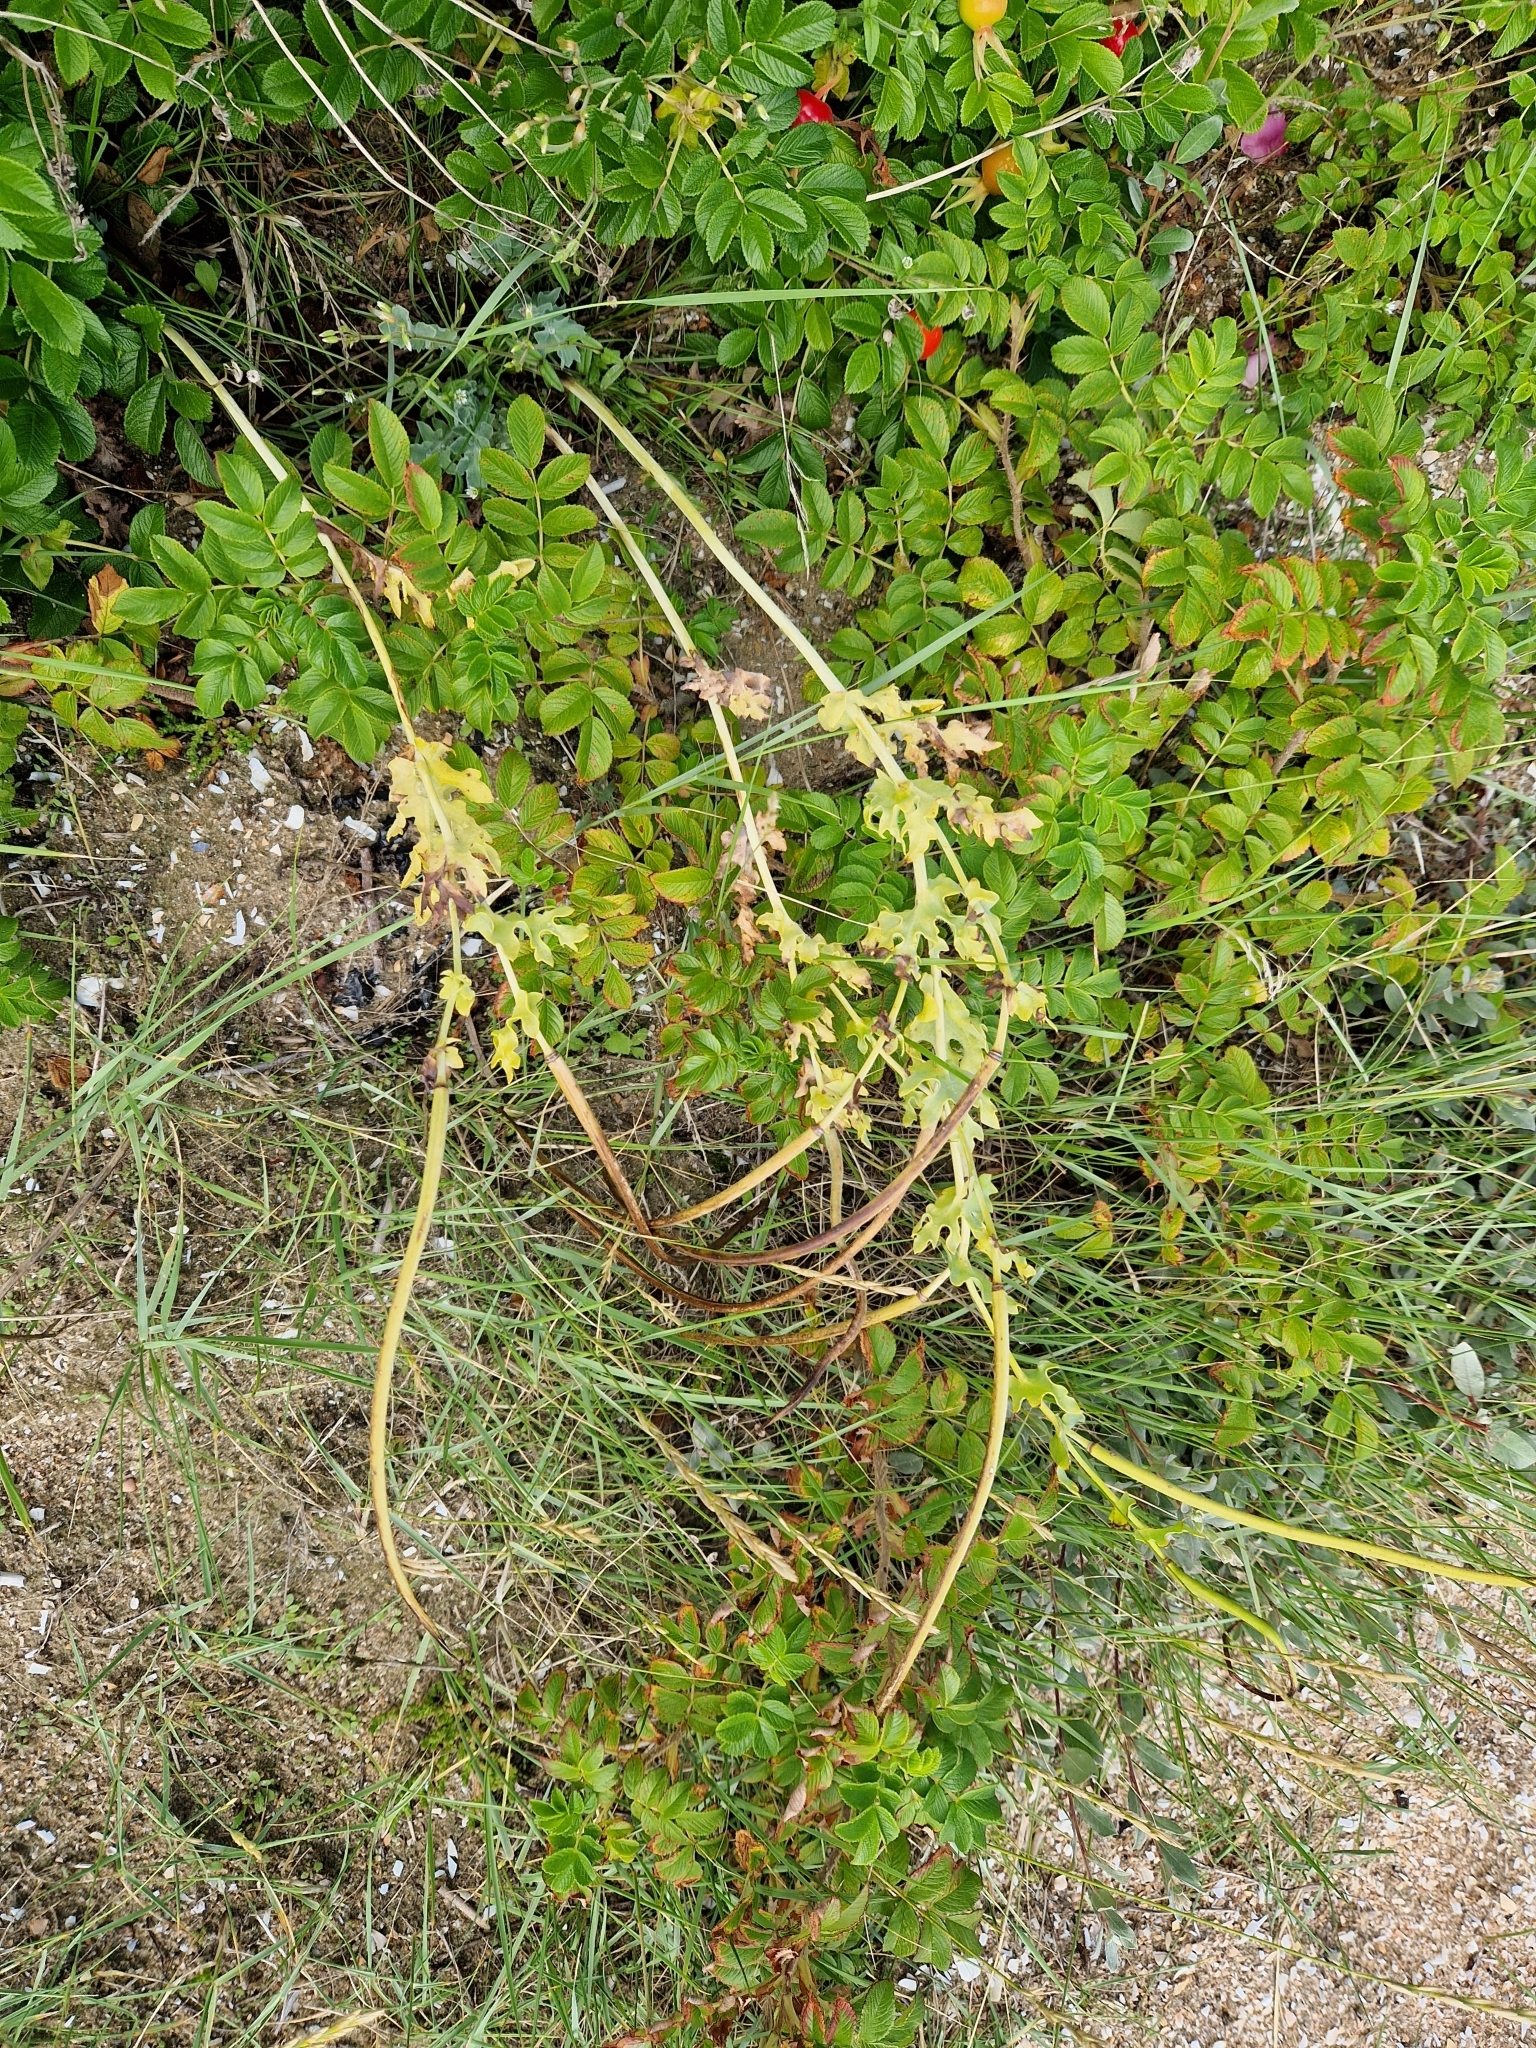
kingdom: Plantae
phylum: Tracheophyta
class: Magnoliopsida
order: Ranunculales
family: Papaveraceae
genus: Glaucium
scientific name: Glaucium flavum
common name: Yellow horned-poppy
